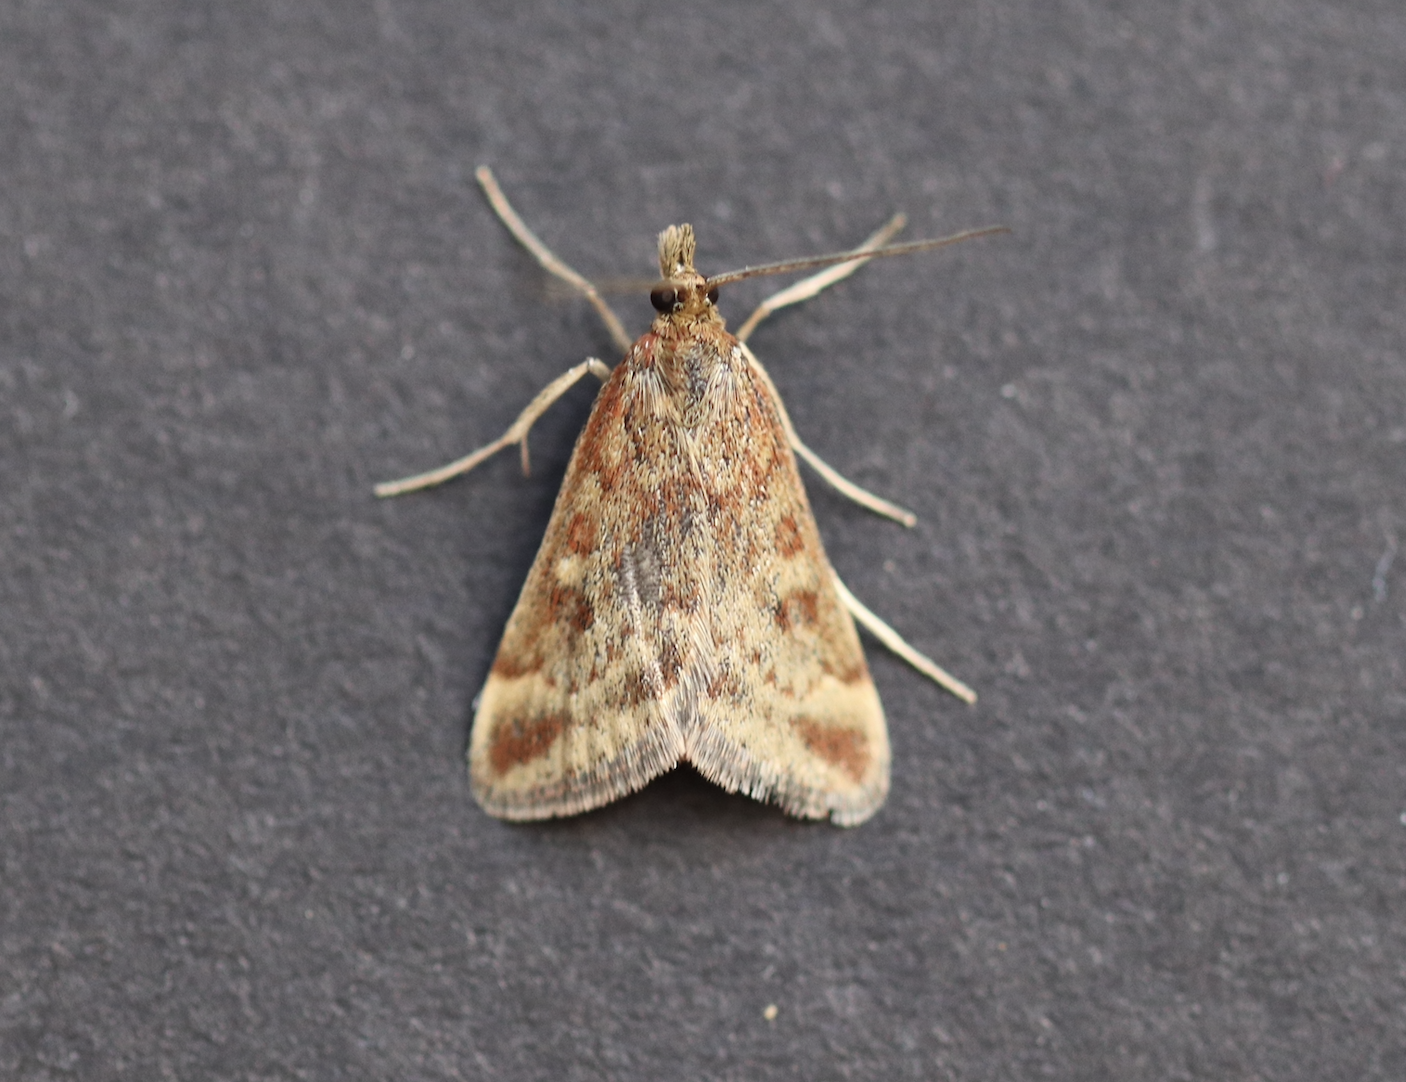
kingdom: Animalia
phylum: Arthropoda
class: Insecta
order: Lepidoptera
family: Crambidae
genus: Pyrausta
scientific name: Pyrausta despicata
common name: Straw-barred pearl
